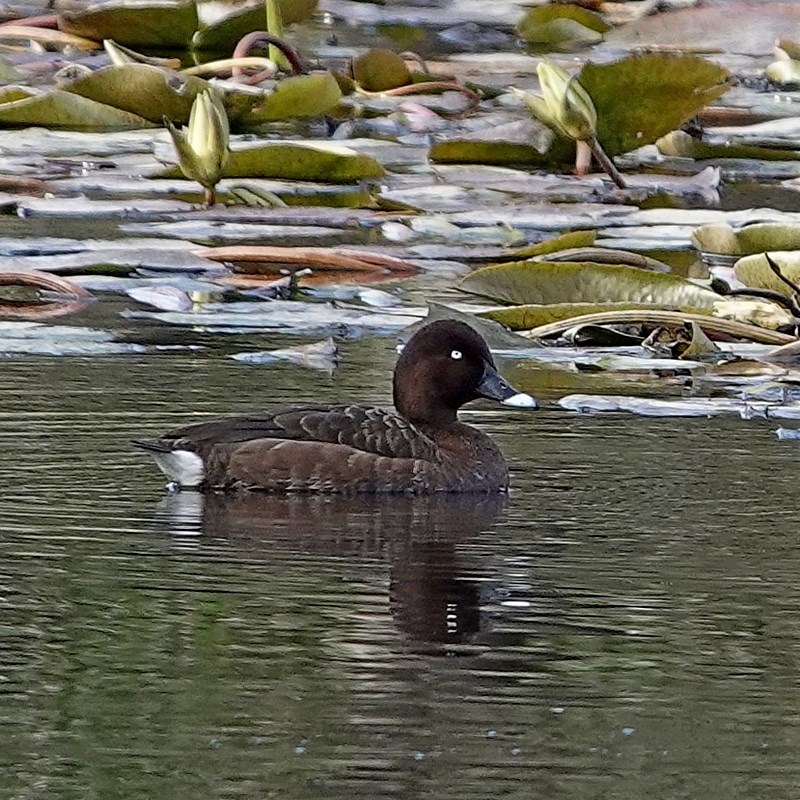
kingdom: Animalia
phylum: Chordata
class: Aves
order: Anseriformes
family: Anatidae
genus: Aythya
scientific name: Aythya australis
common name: Hardhead
